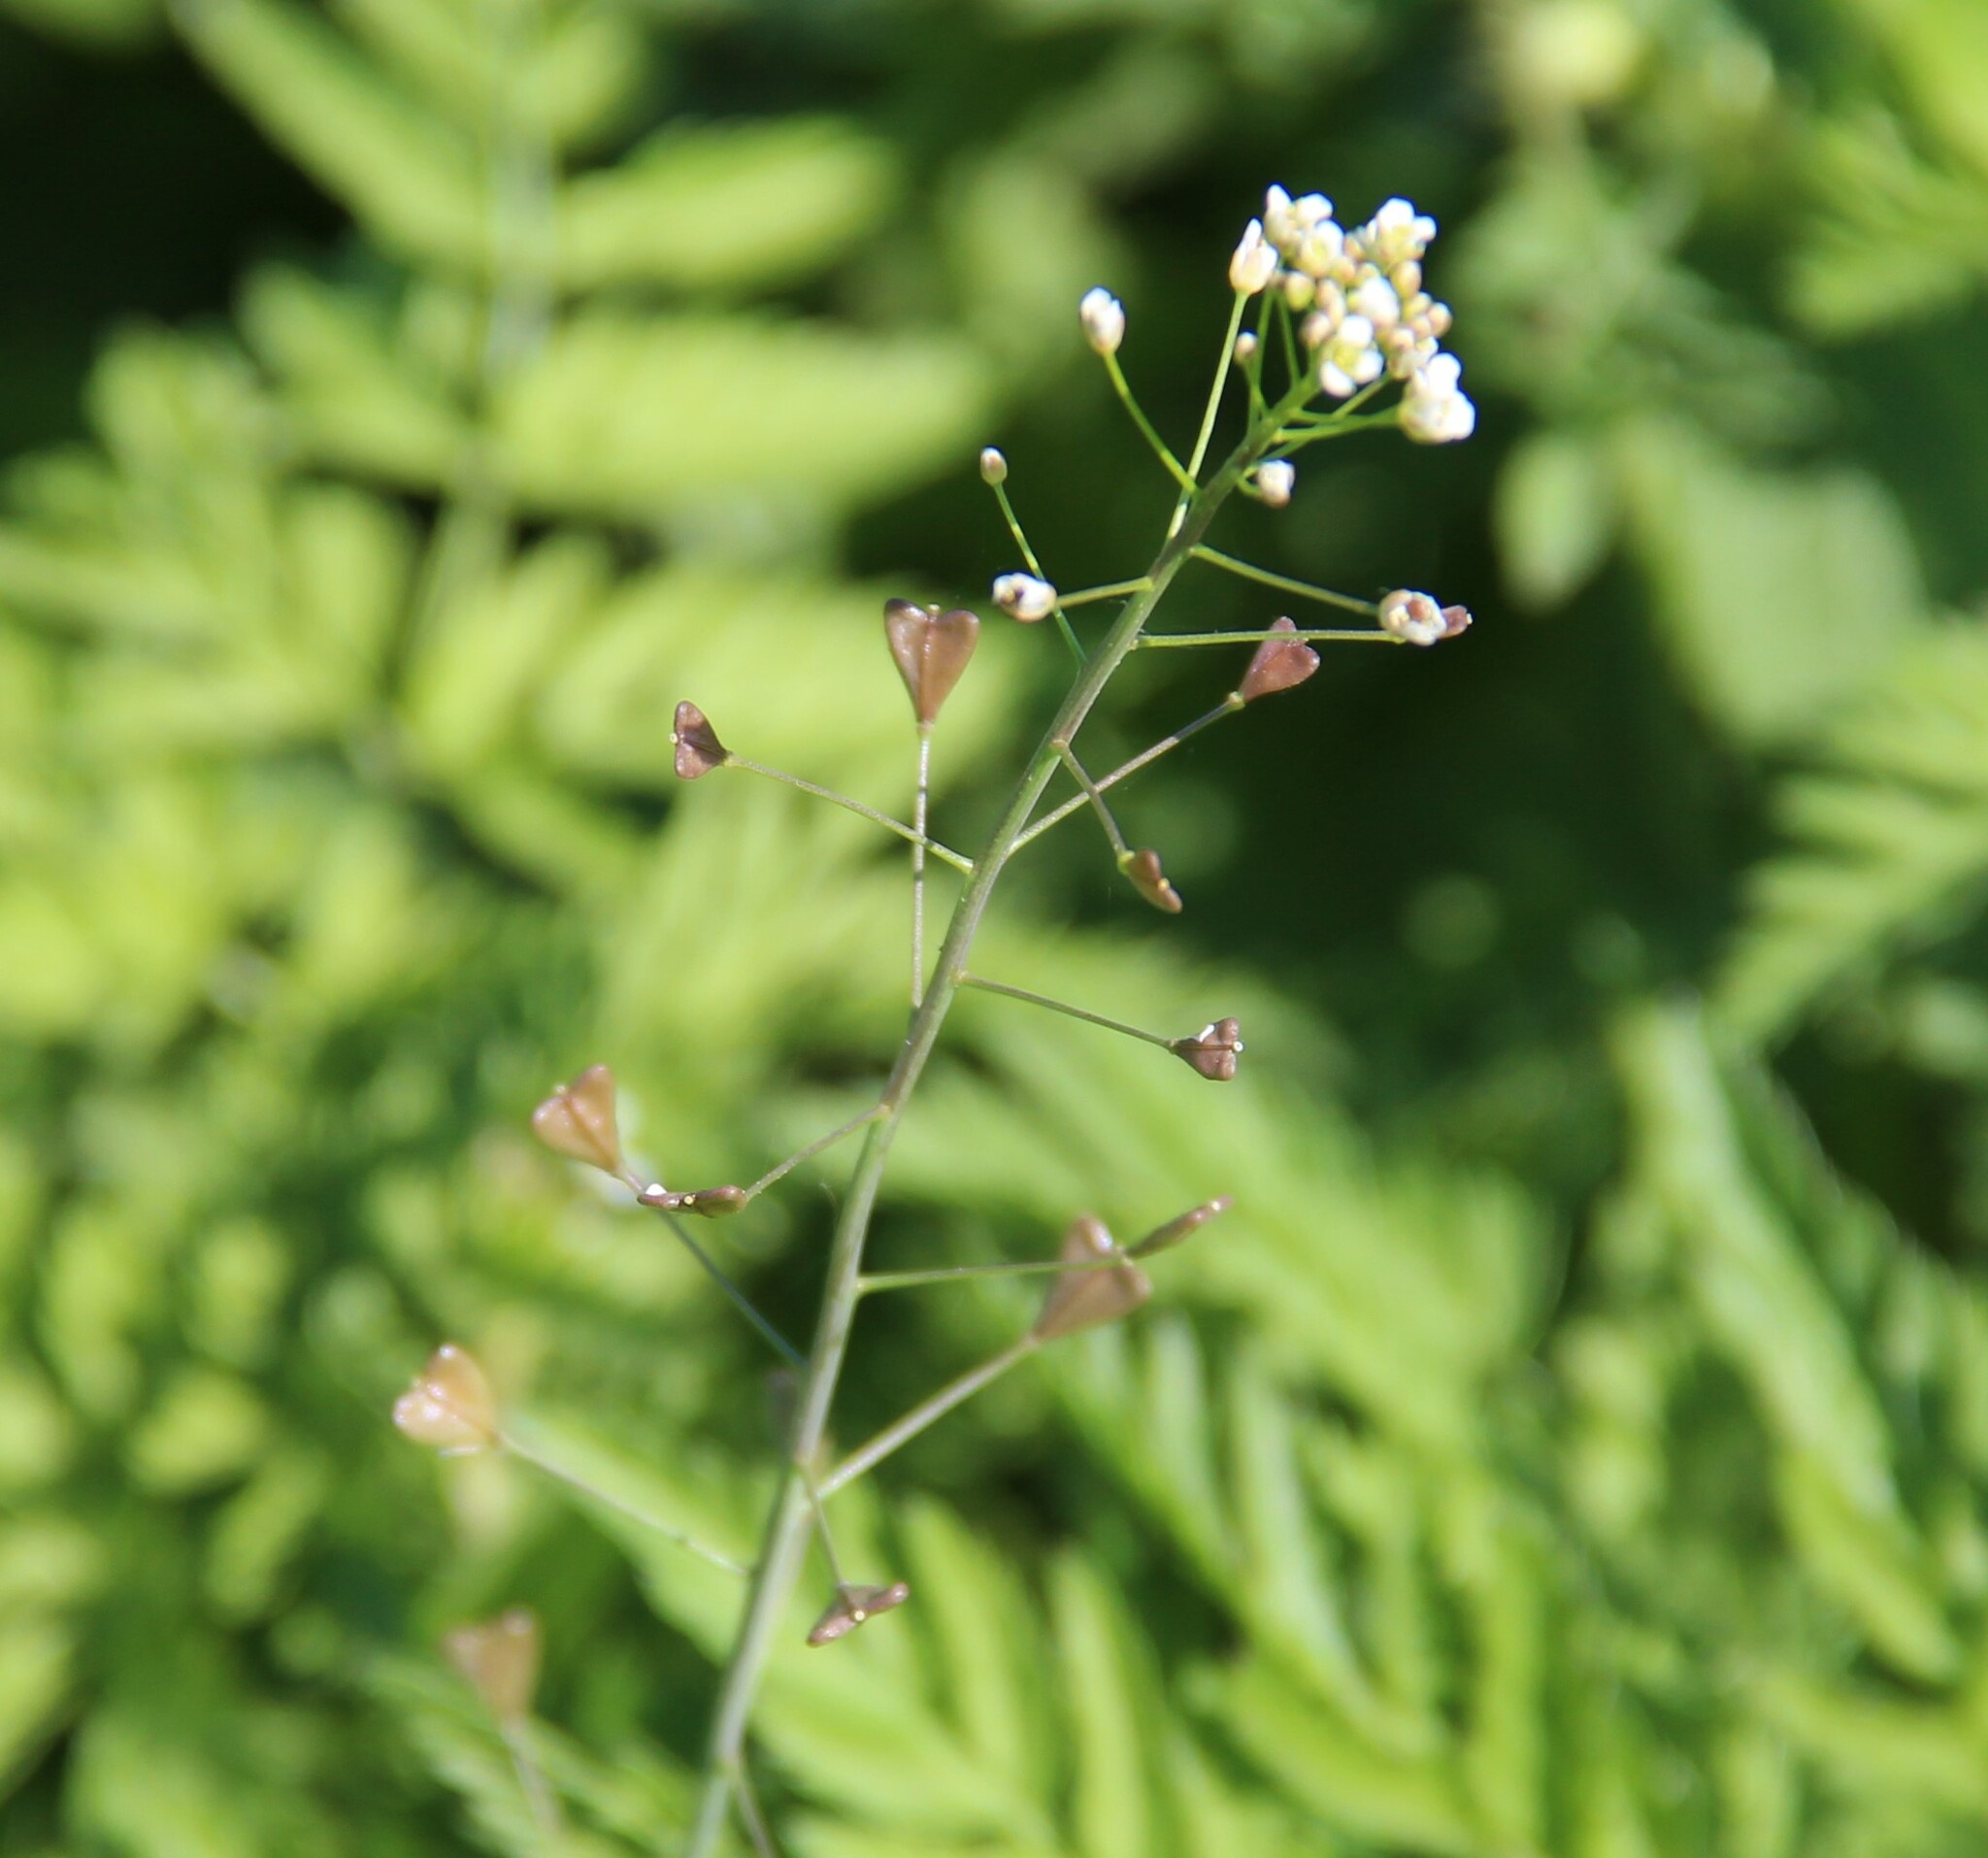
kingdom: Plantae
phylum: Tracheophyta
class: Magnoliopsida
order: Brassicales
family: Brassicaceae
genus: Capsella
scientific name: Capsella bursa-pastoris
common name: Shepherd's purse
